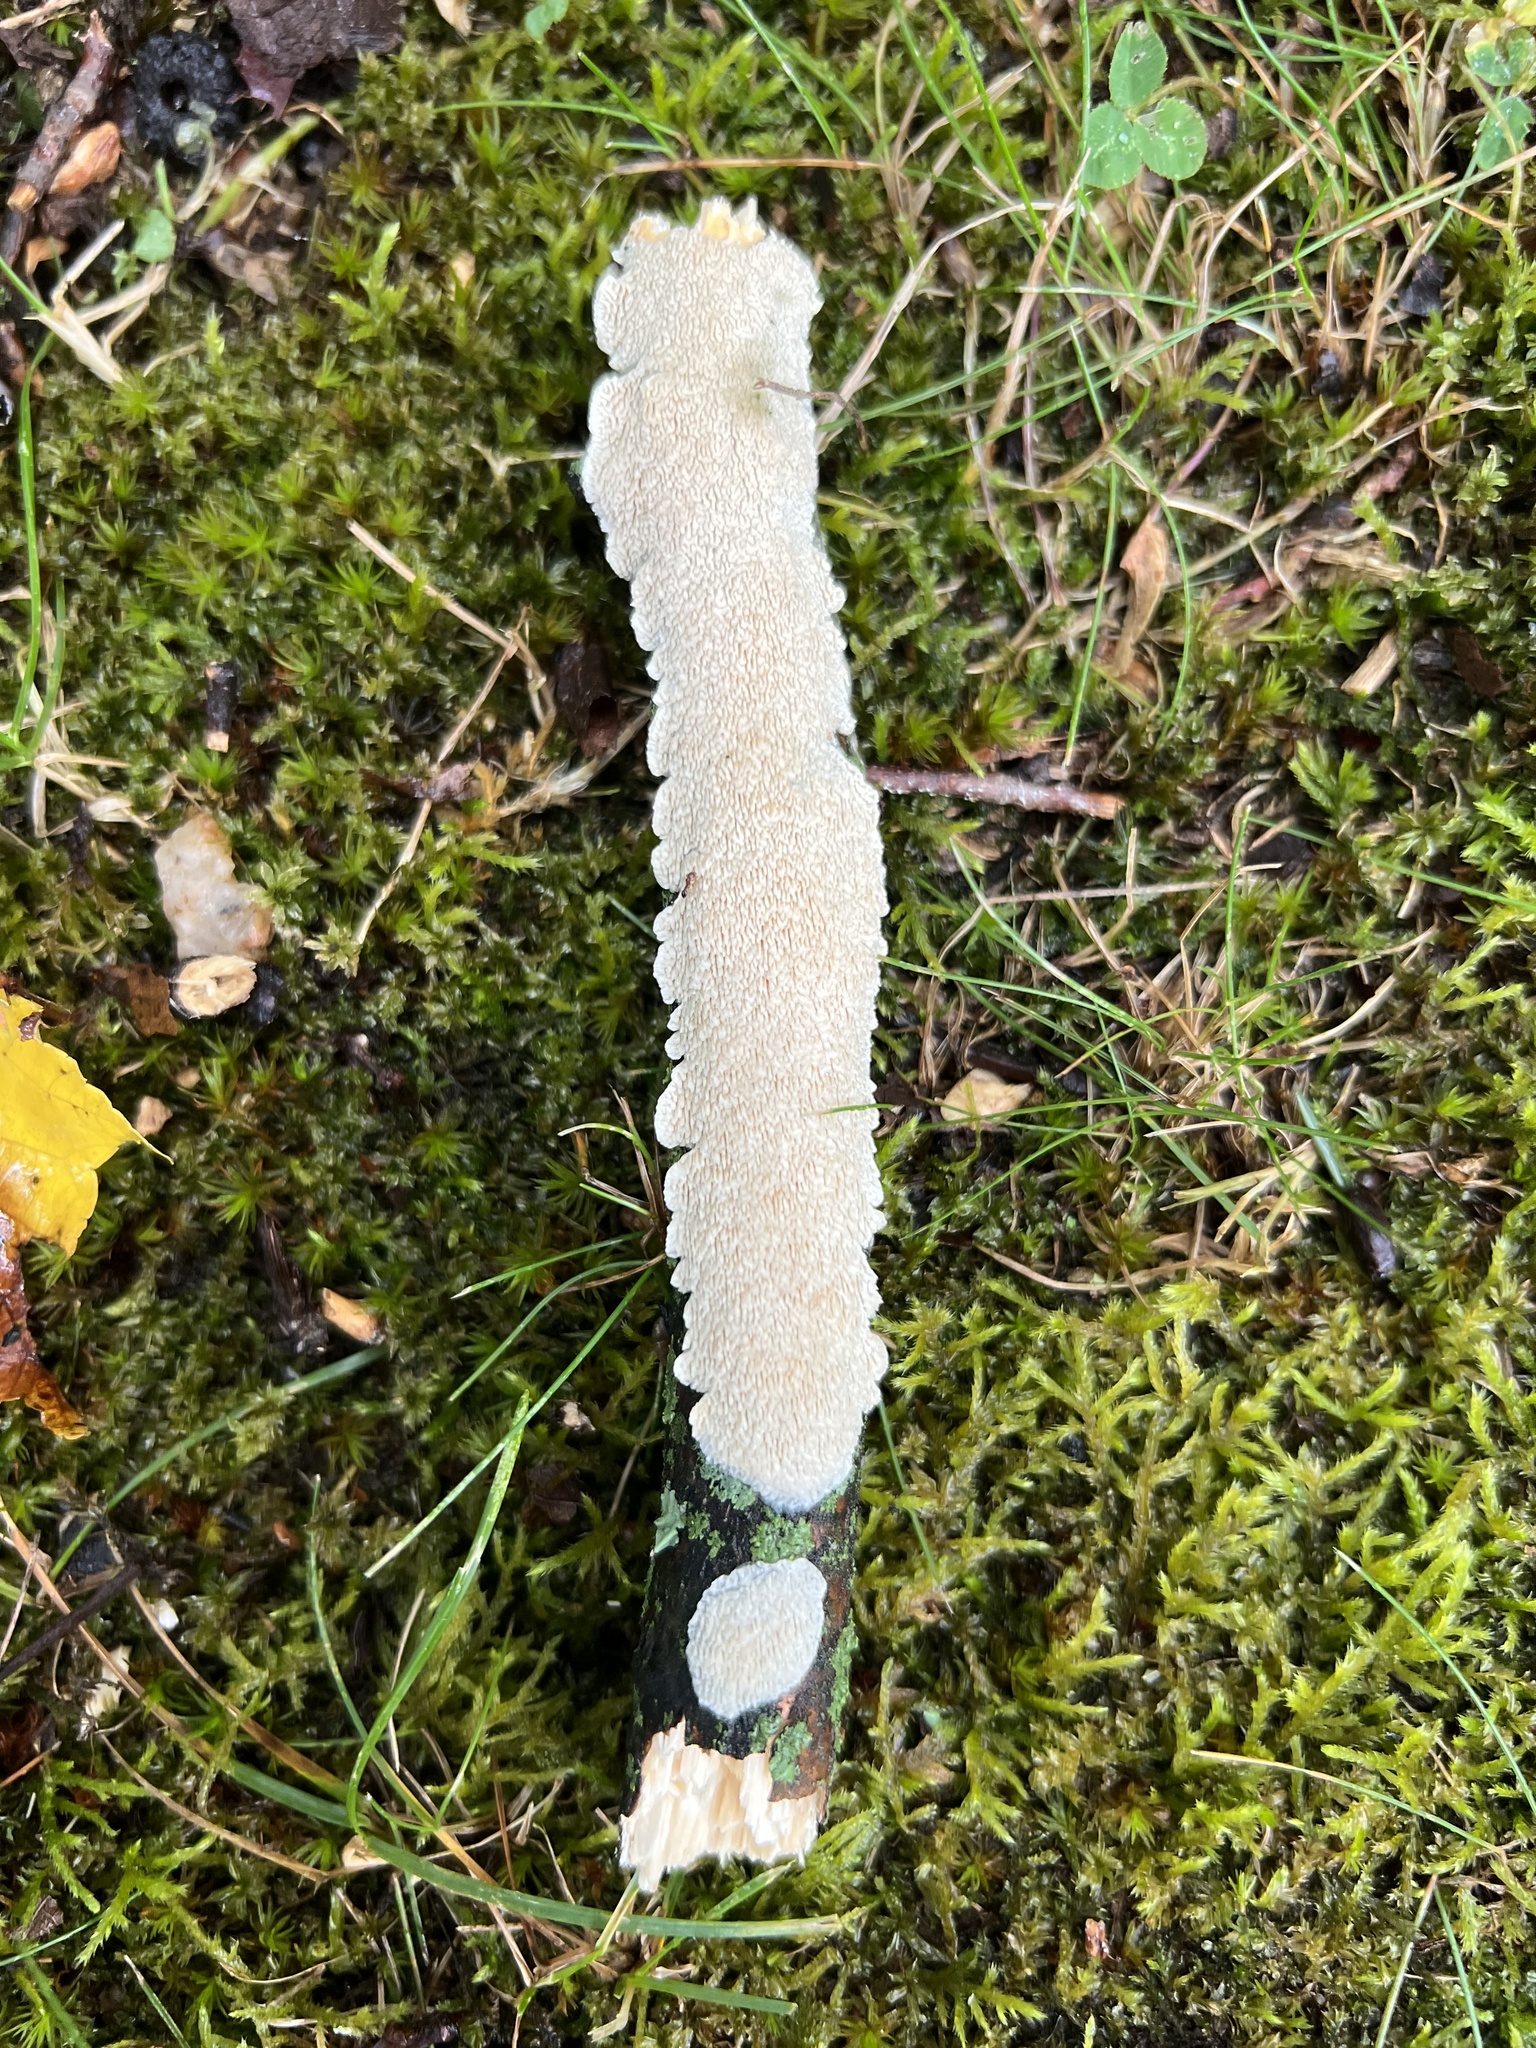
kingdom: Fungi
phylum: Basidiomycota
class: Agaricomycetes
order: Polyporales
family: Irpicaceae
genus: Irpex
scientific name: Irpex lacteus
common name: Milk-white toothed polypore
